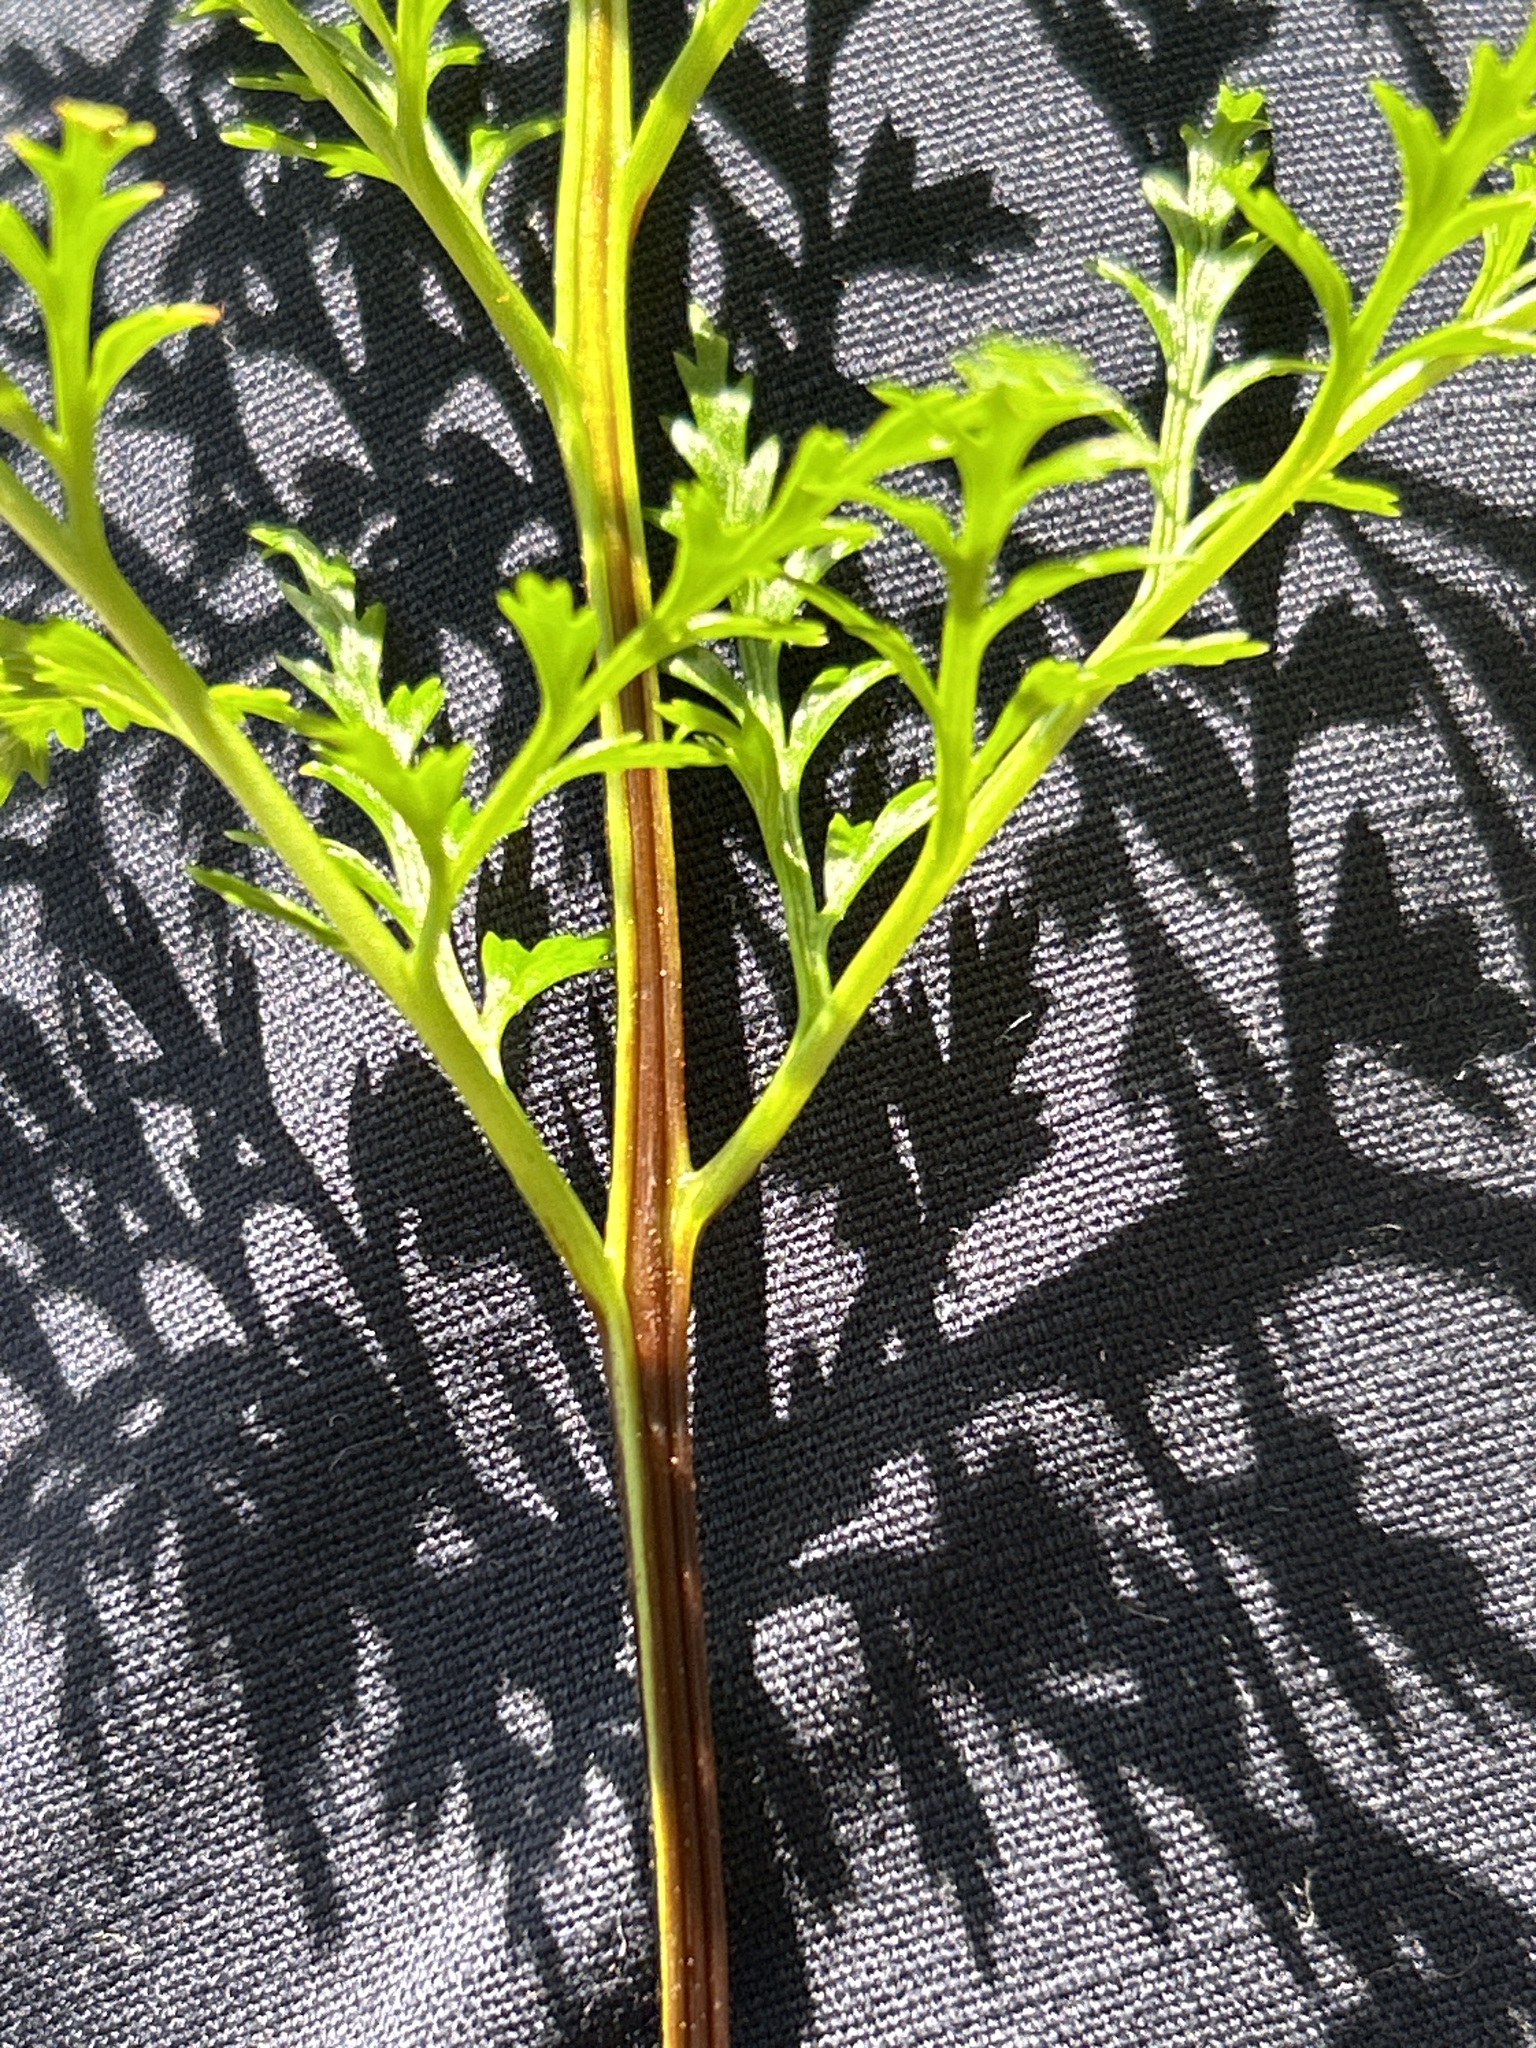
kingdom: Plantae
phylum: Tracheophyta
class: Polypodiopsida
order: Polypodiales
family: Aspleniaceae
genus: Asplenium
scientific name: Asplenium adiantum-nigrum
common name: Black spleenwort
